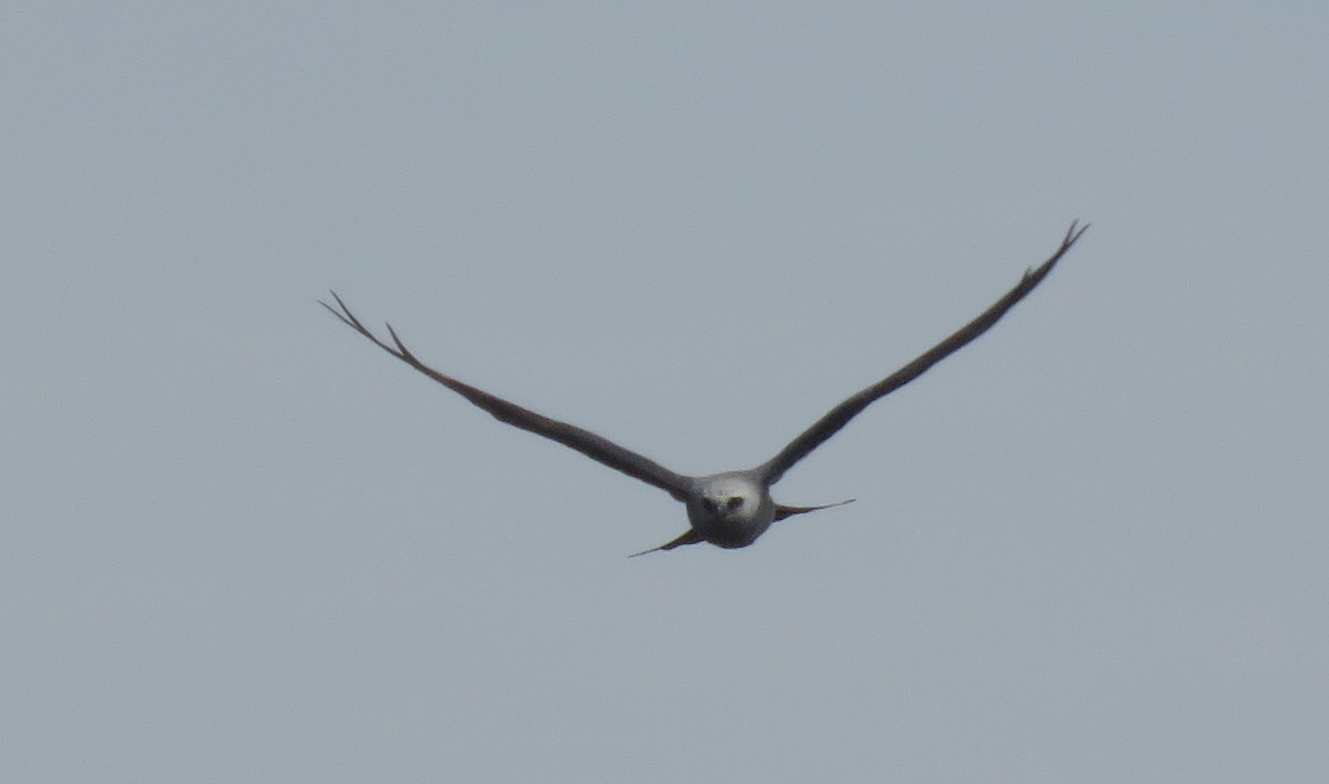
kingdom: Animalia
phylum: Chordata
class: Aves
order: Accipitriformes
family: Accipitridae
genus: Ictinia
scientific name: Ictinia mississippiensis
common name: Mississippi kite
